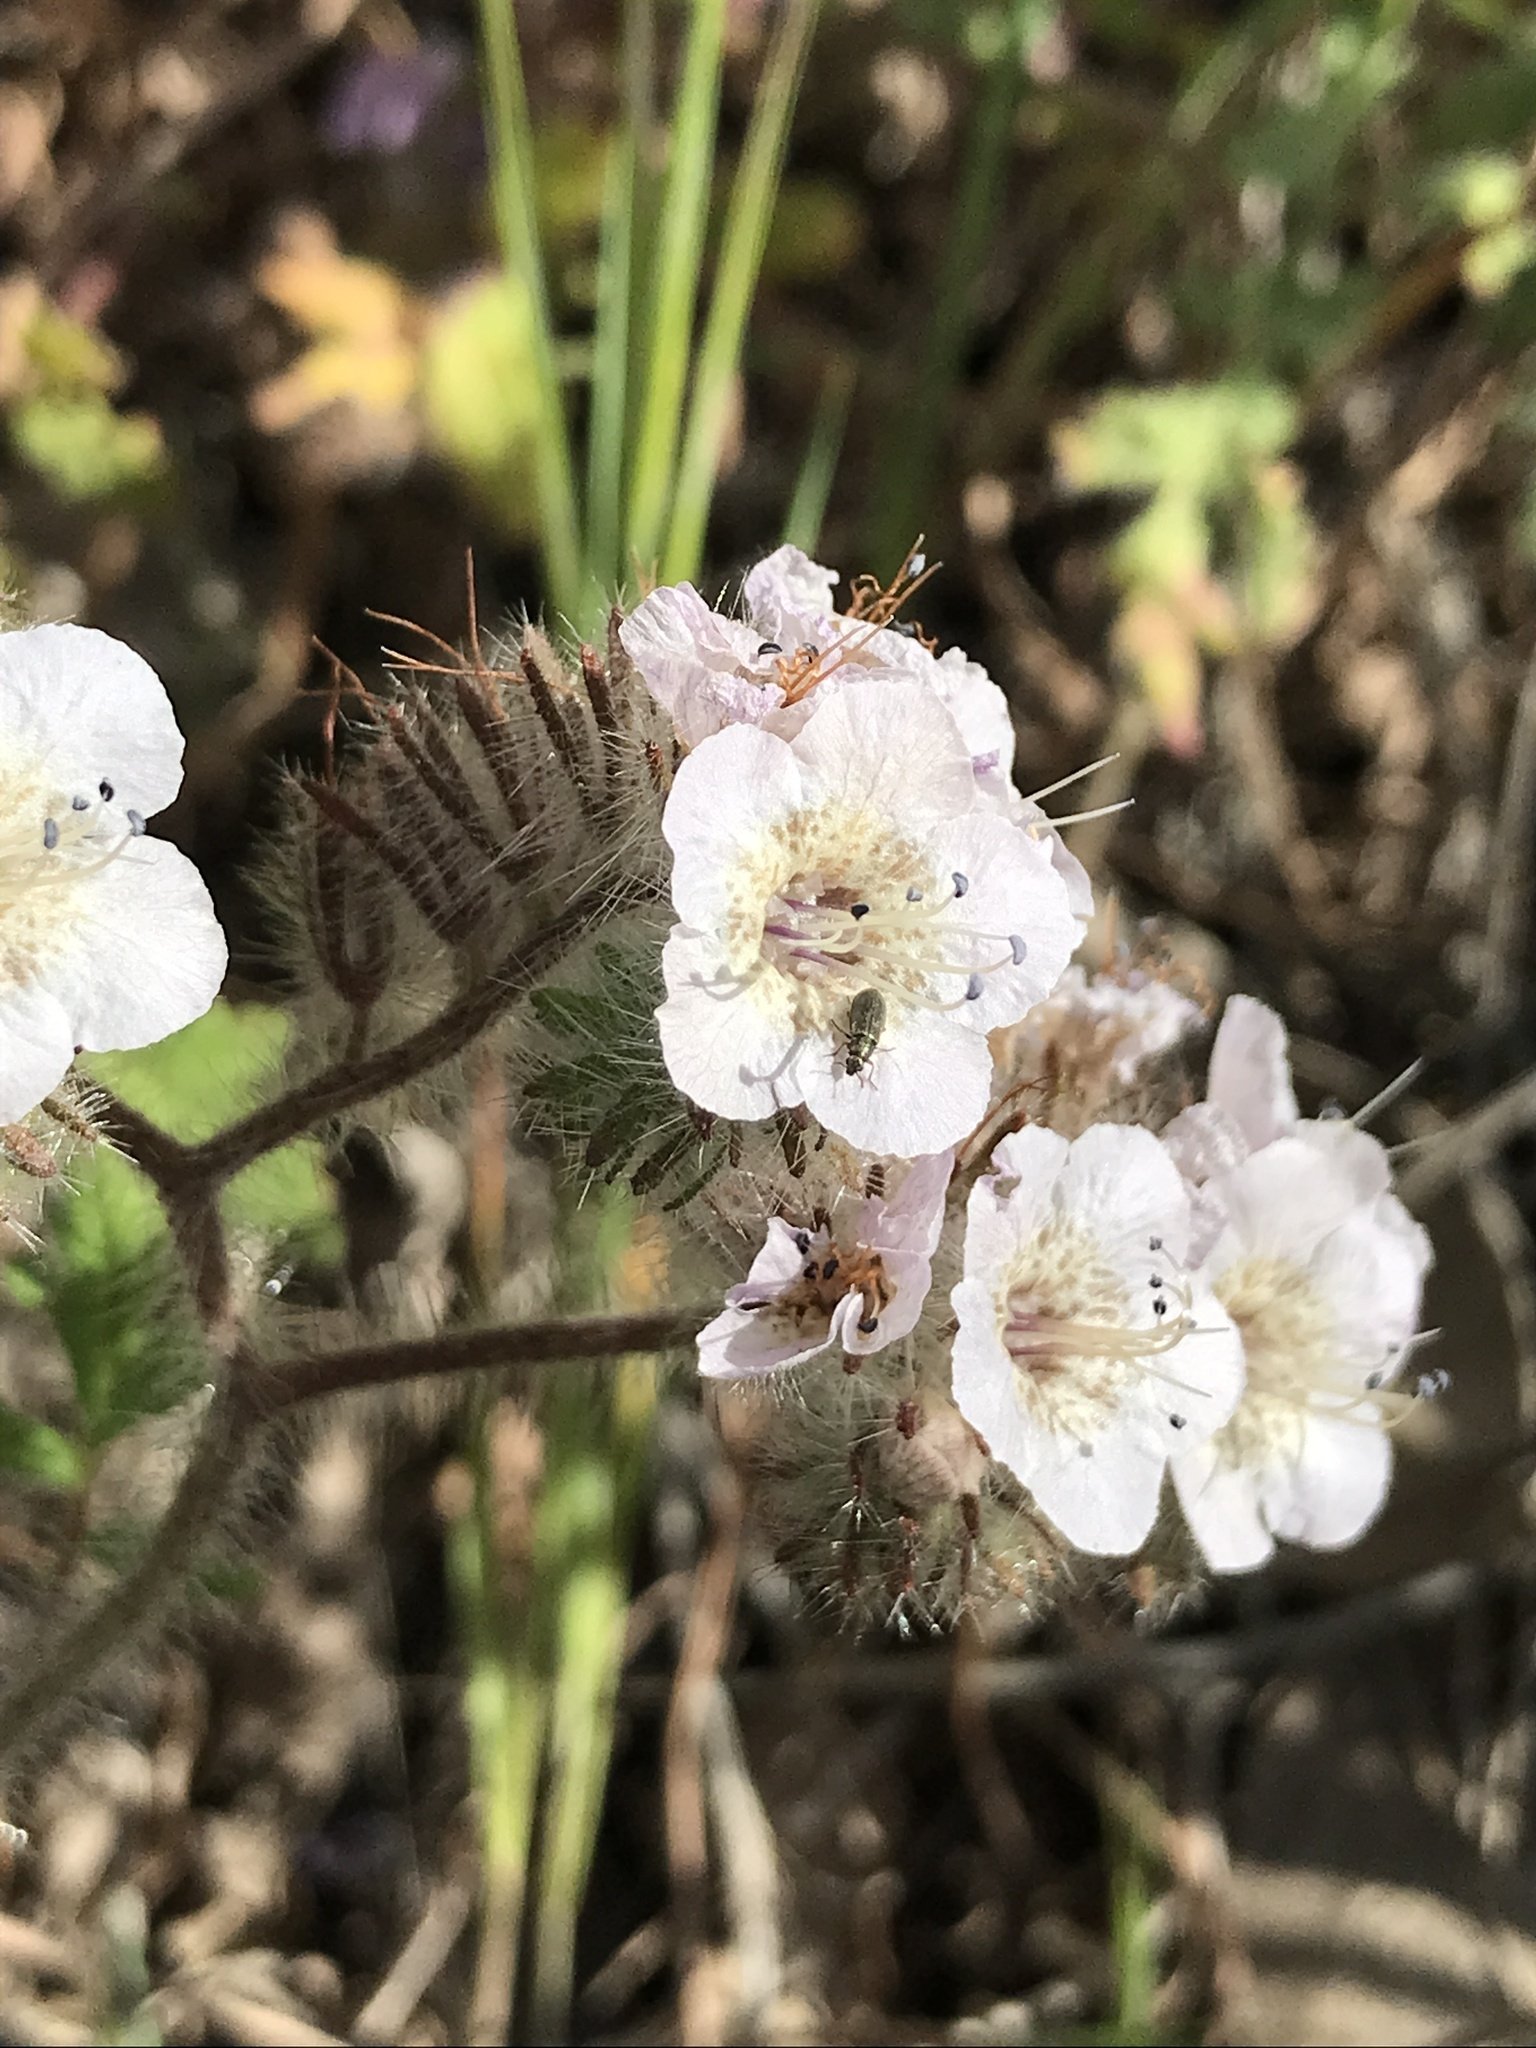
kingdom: Plantae
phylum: Tracheophyta
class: Magnoliopsida
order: Boraginales
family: Hydrophyllaceae
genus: Phacelia
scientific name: Phacelia cicutaria
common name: Caterpillar phacelia
